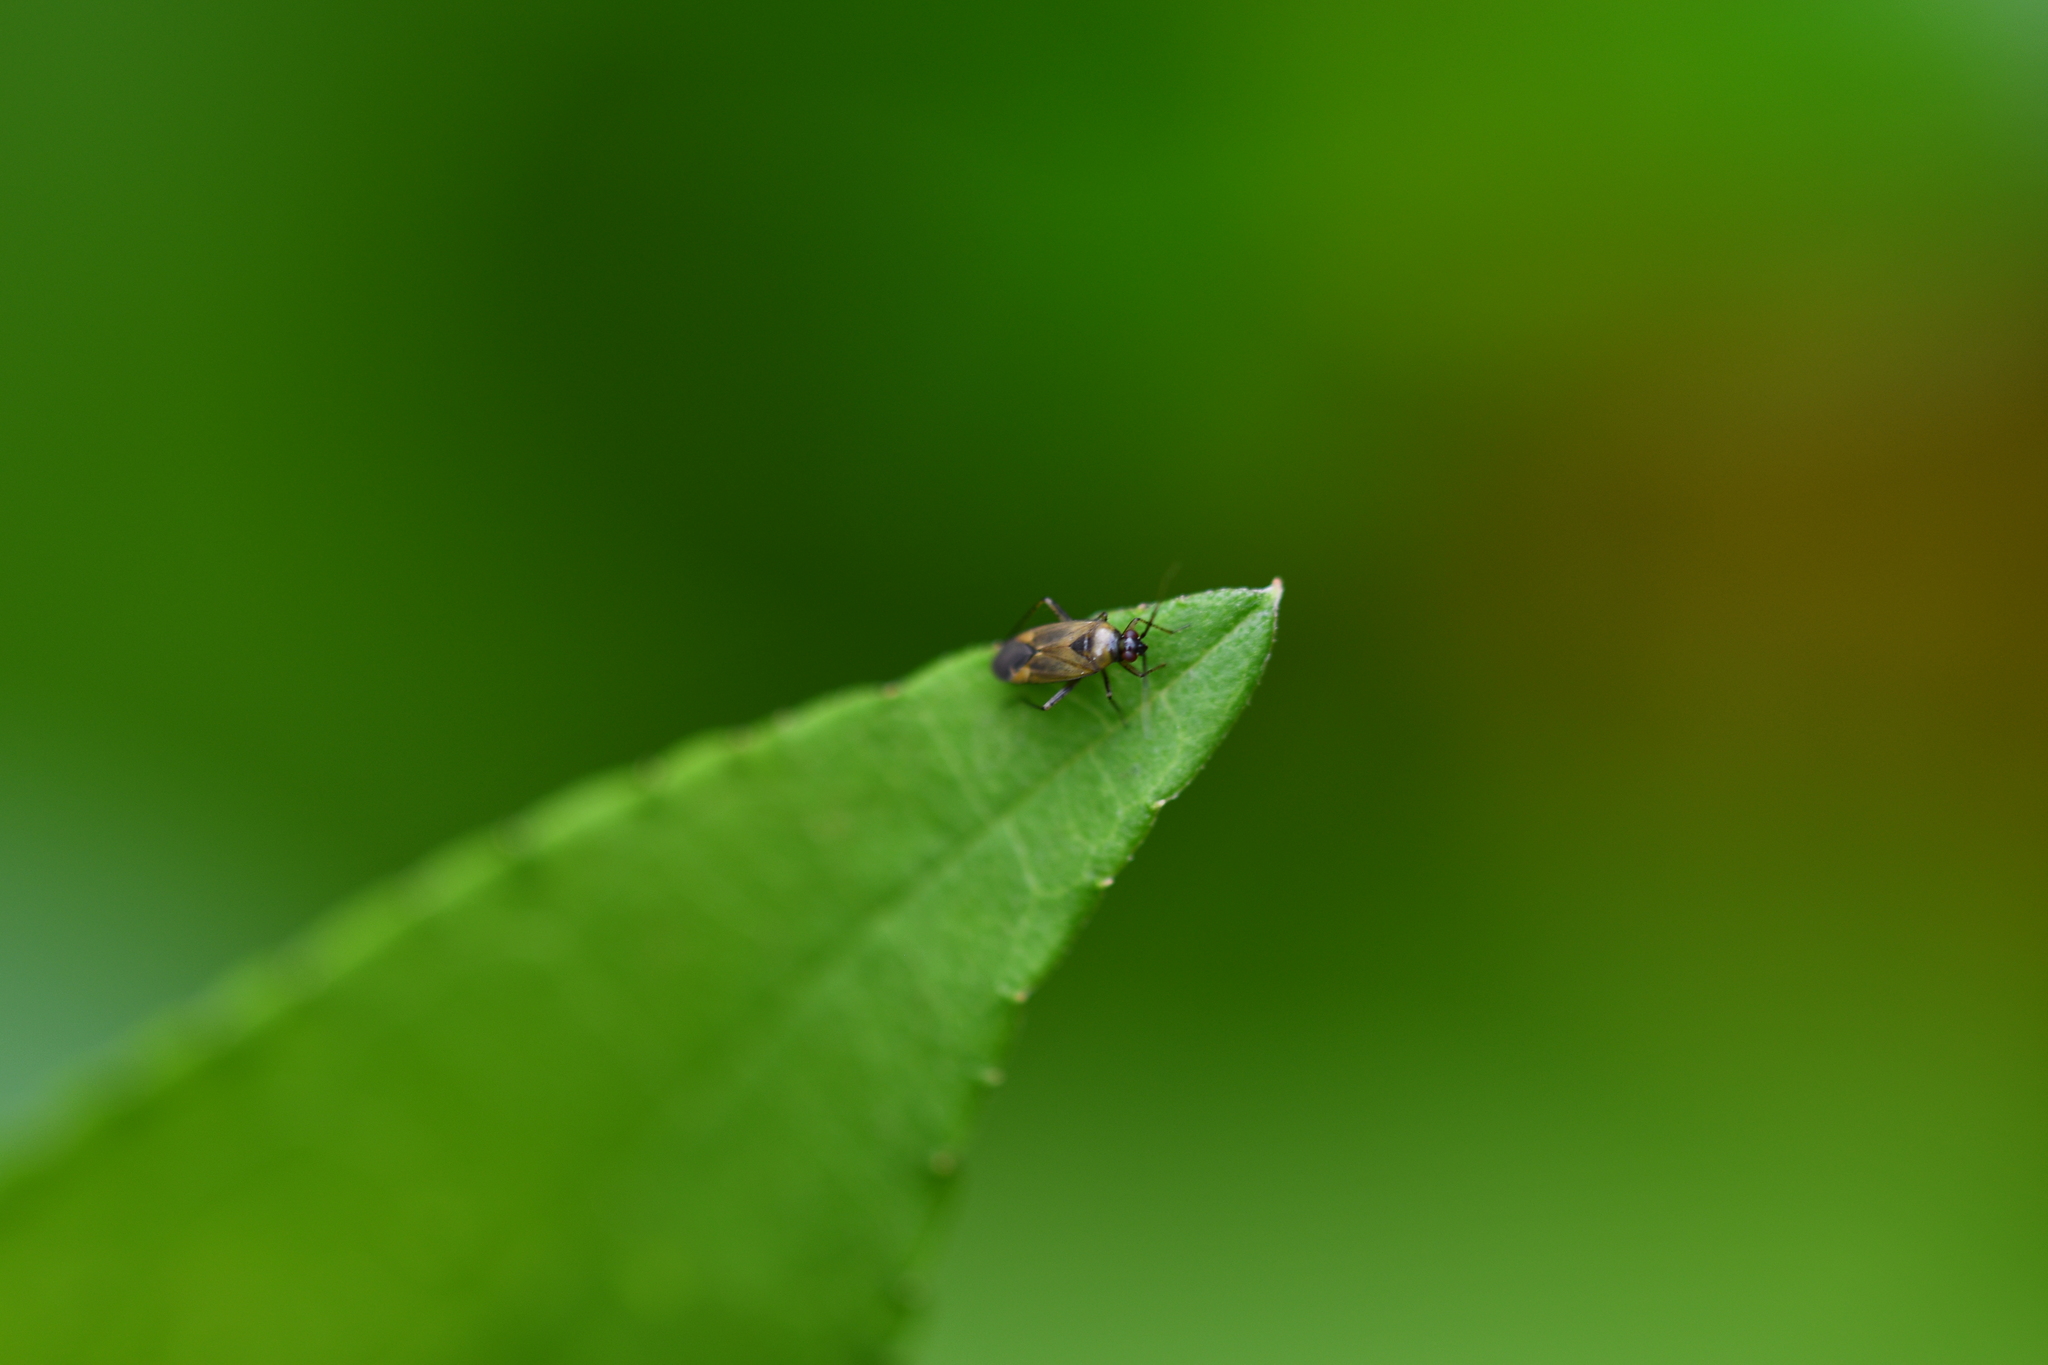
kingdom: Animalia
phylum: Arthropoda
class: Insecta
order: Hemiptera
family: Miridae
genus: Plagiognathus
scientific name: Plagiognathus arbustorum
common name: Plant bug
